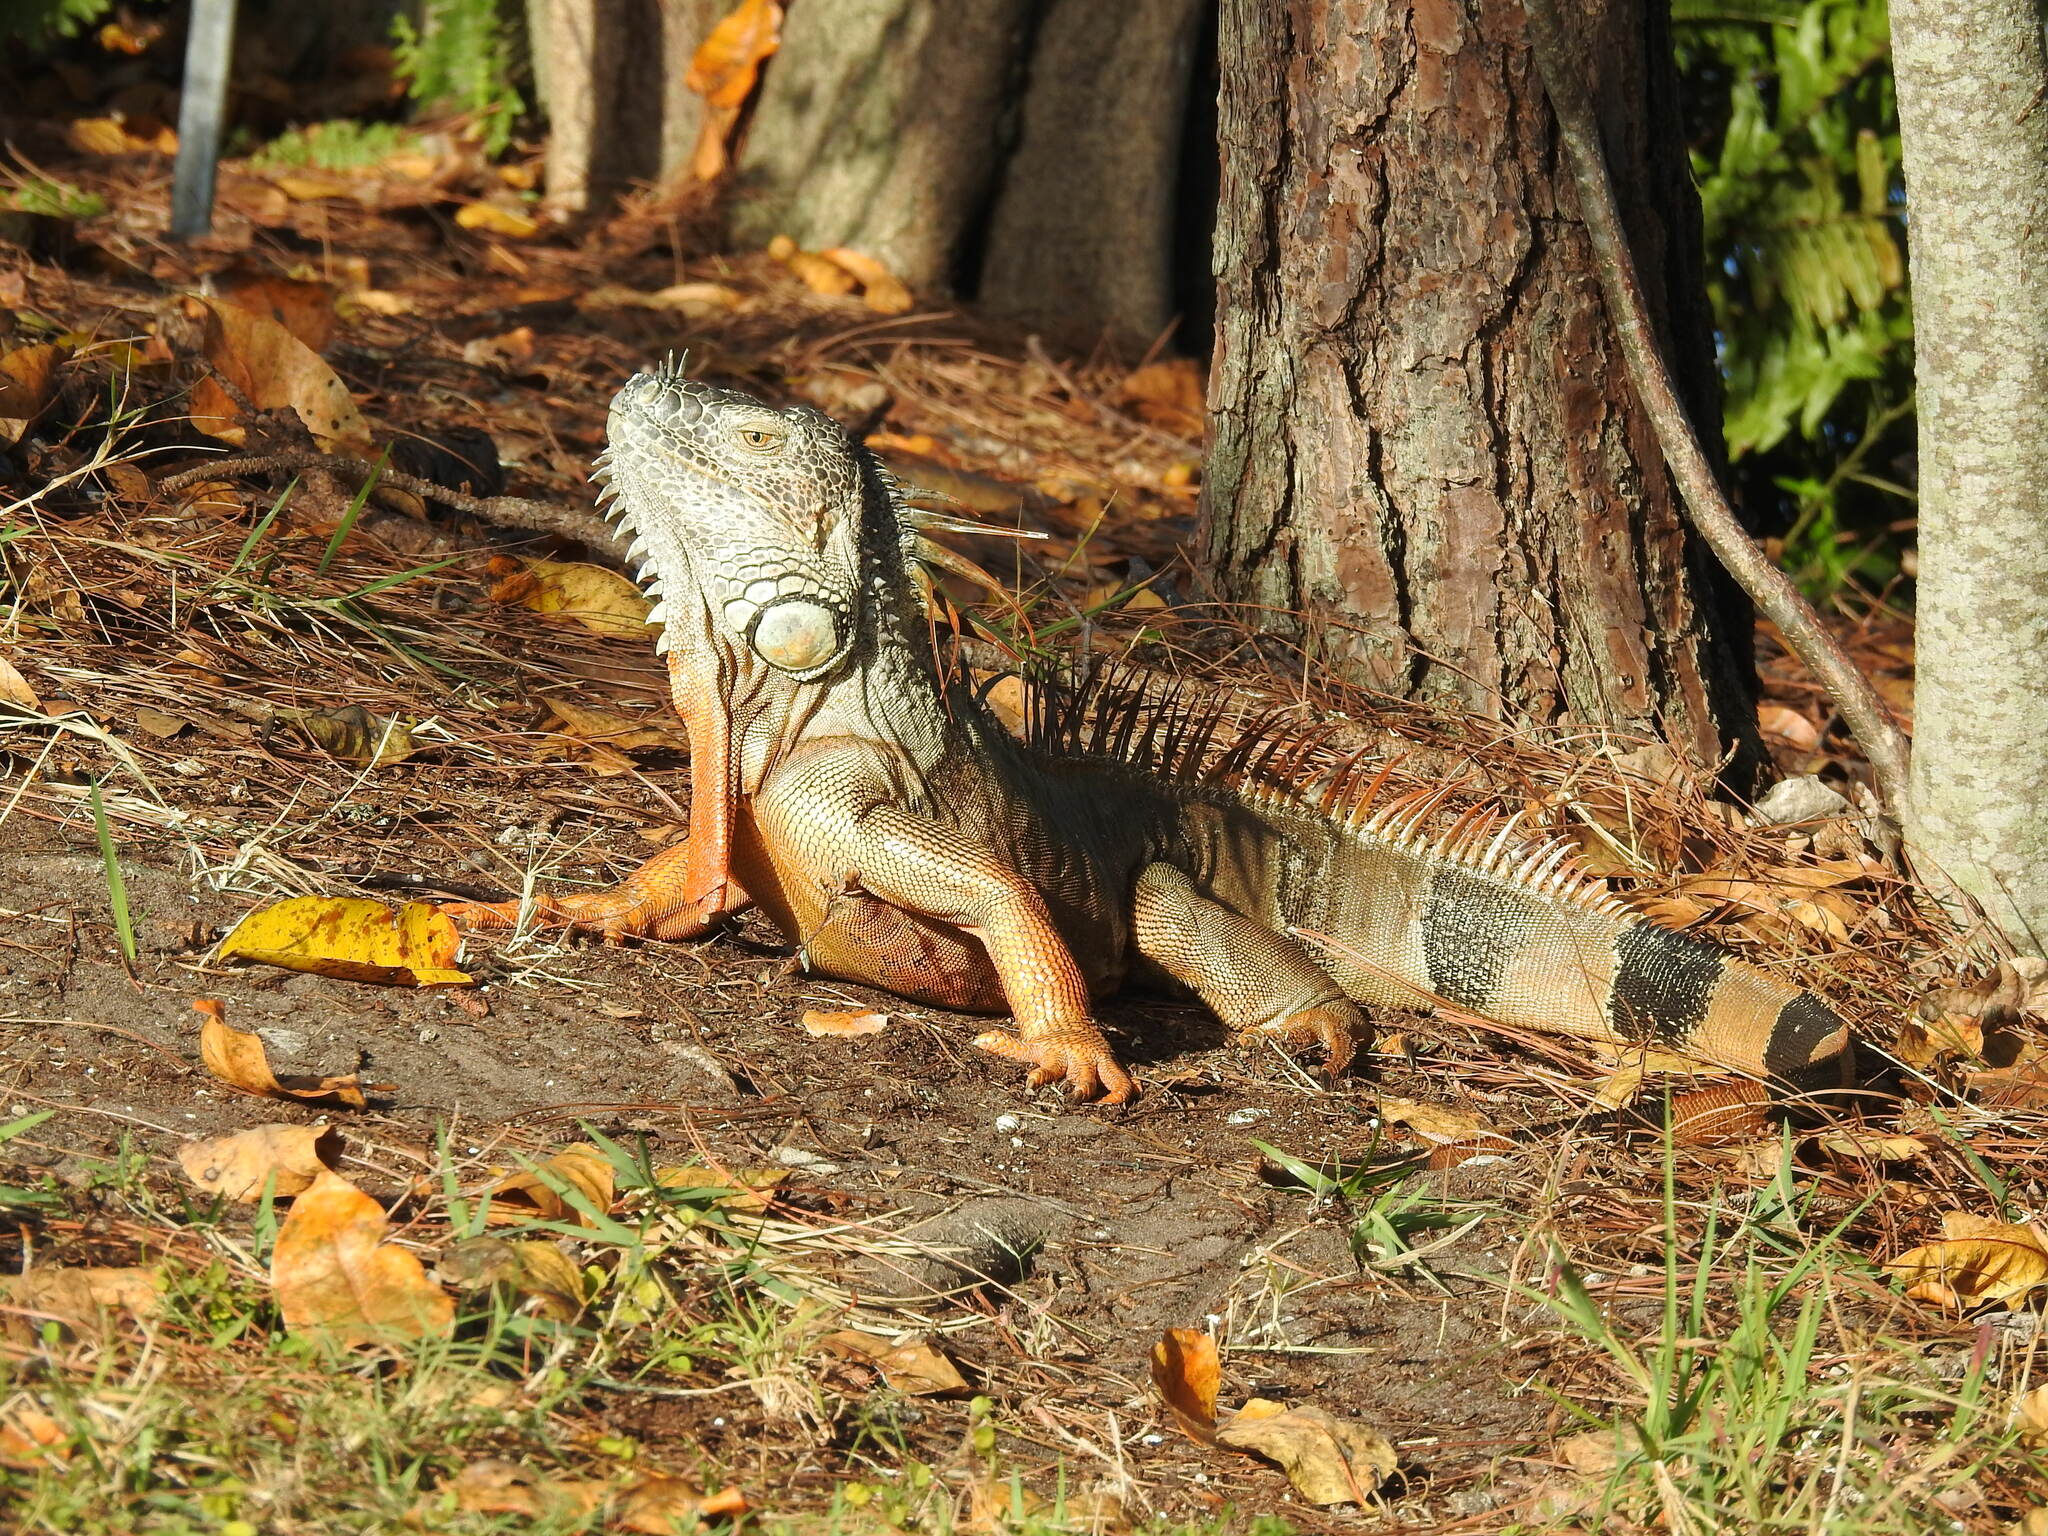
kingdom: Animalia
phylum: Chordata
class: Squamata
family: Iguanidae
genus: Iguana
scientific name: Iguana iguana
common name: Green iguana
